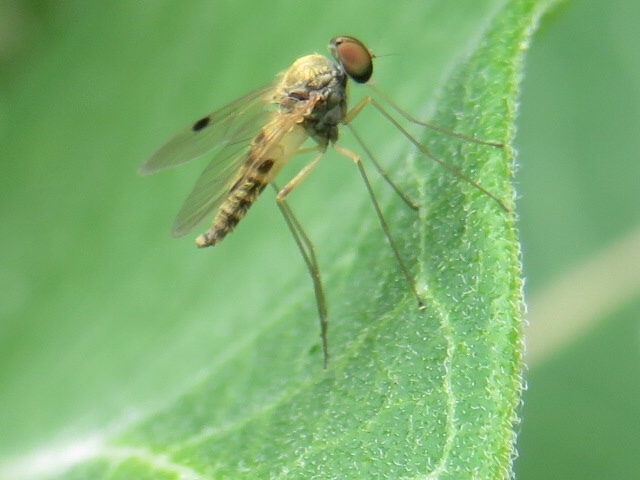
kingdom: Animalia
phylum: Arthropoda
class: Insecta
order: Diptera
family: Rhagionidae
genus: Chrysopilus
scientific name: Chrysopilus modestus
